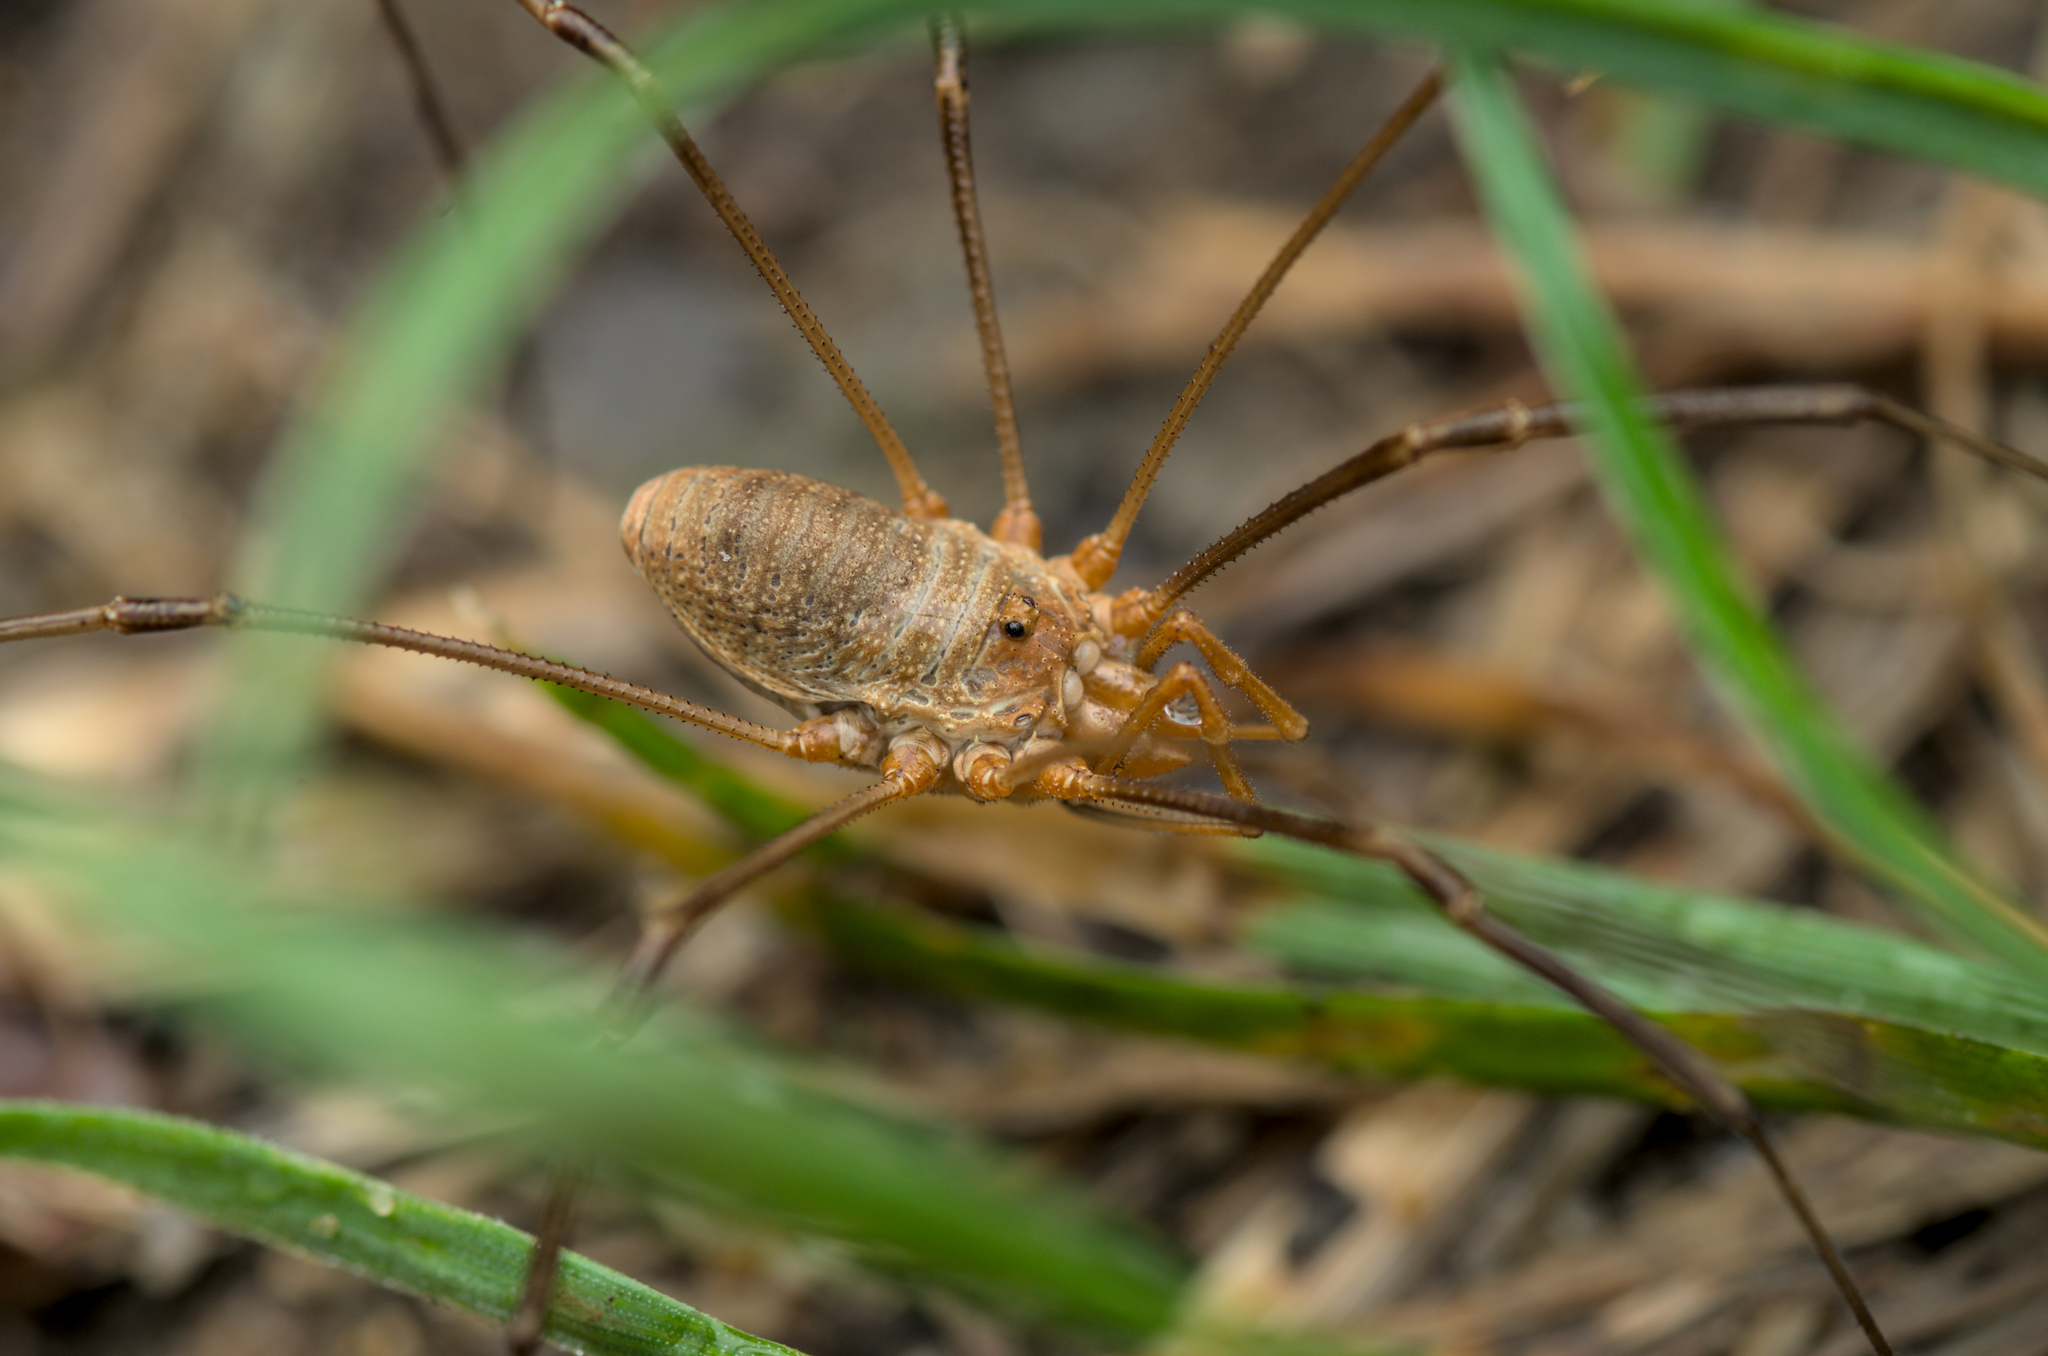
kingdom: Animalia
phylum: Arthropoda
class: Arachnida
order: Opiliones
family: Phalangiidae
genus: Phalangium
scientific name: Phalangium opilio
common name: Daddy longleg
